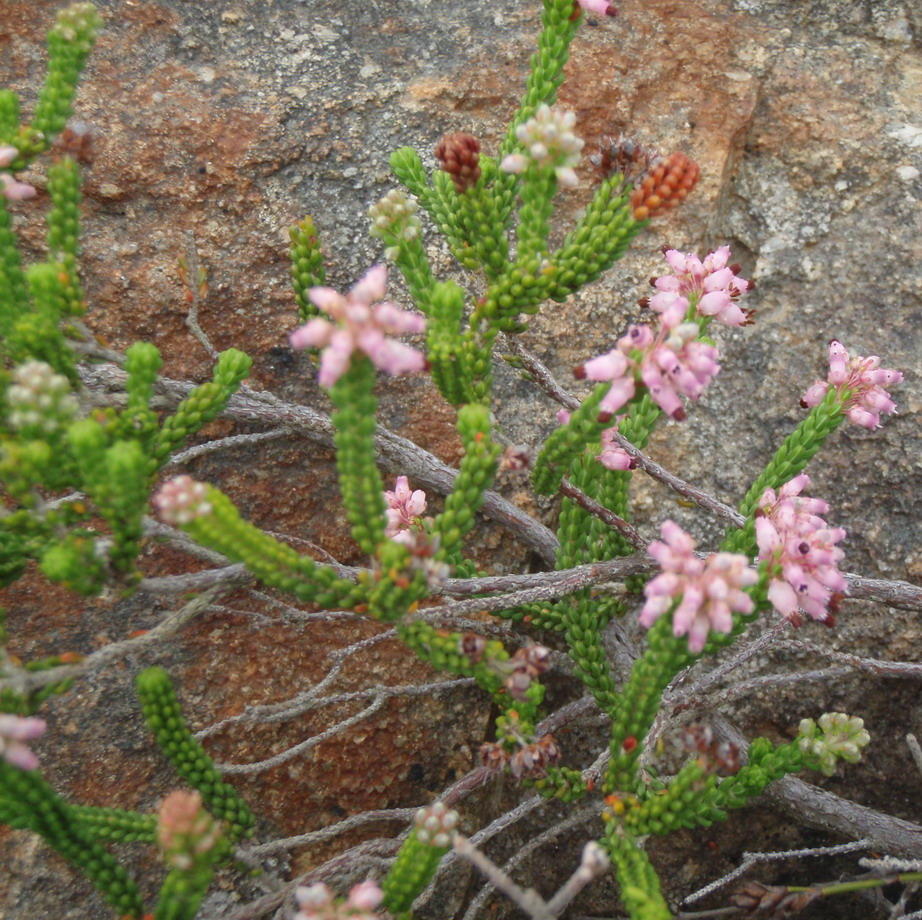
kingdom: Plantae
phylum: Tracheophyta
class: Magnoliopsida
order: Ericales
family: Ericaceae
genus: Erica
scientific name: Erica petraea
